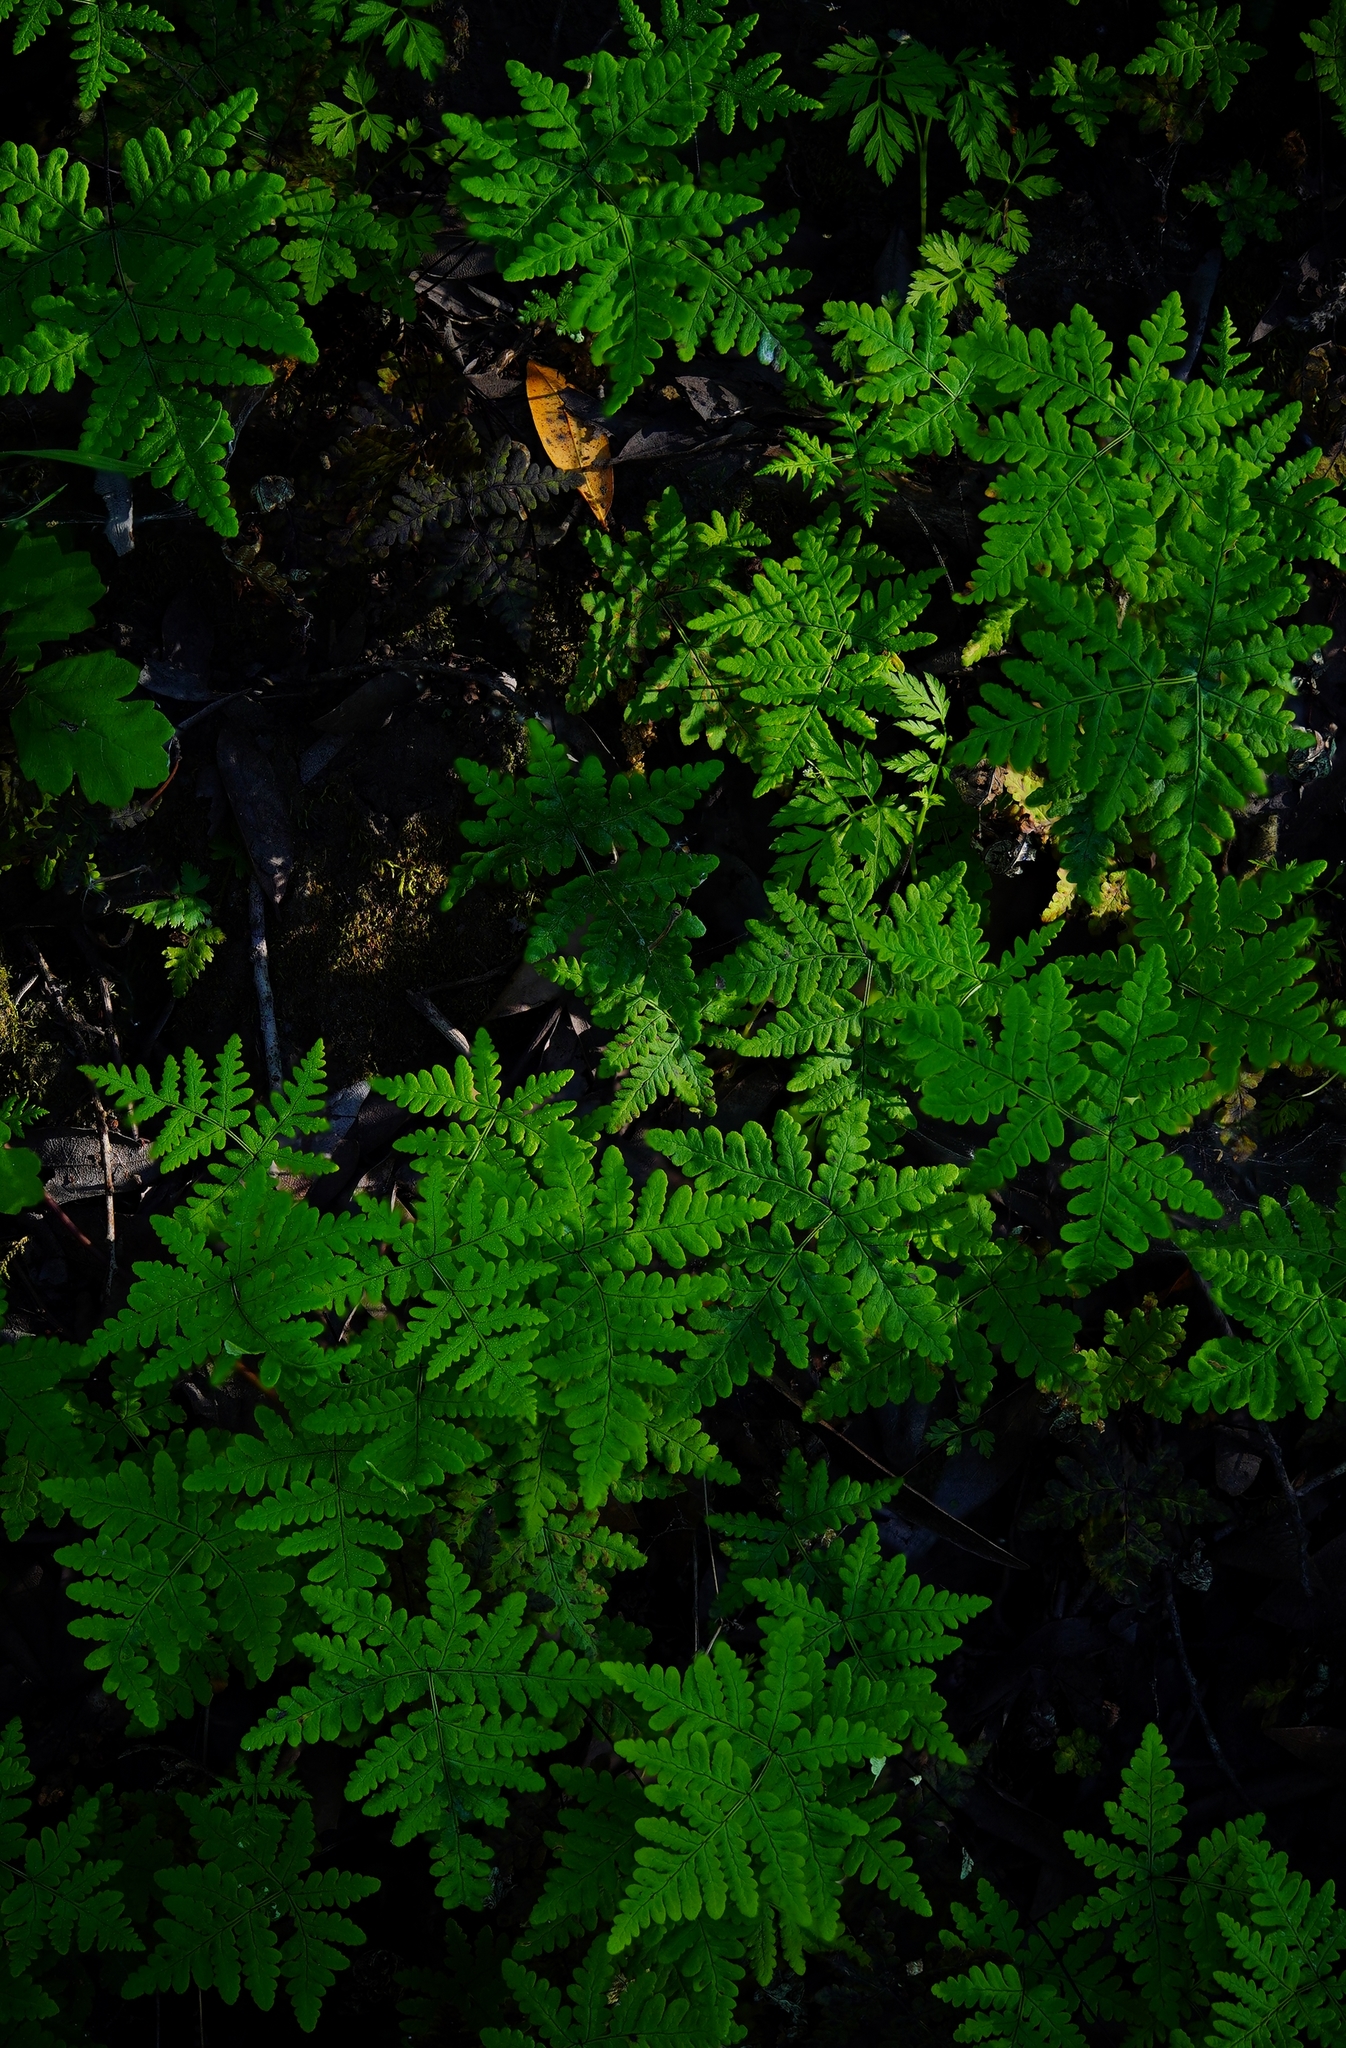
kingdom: Plantae
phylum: Tracheophyta
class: Polypodiopsida
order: Polypodiales
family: Pteridaceae
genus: Pentagramma
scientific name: Pentagramma triangularis
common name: Gold fern
